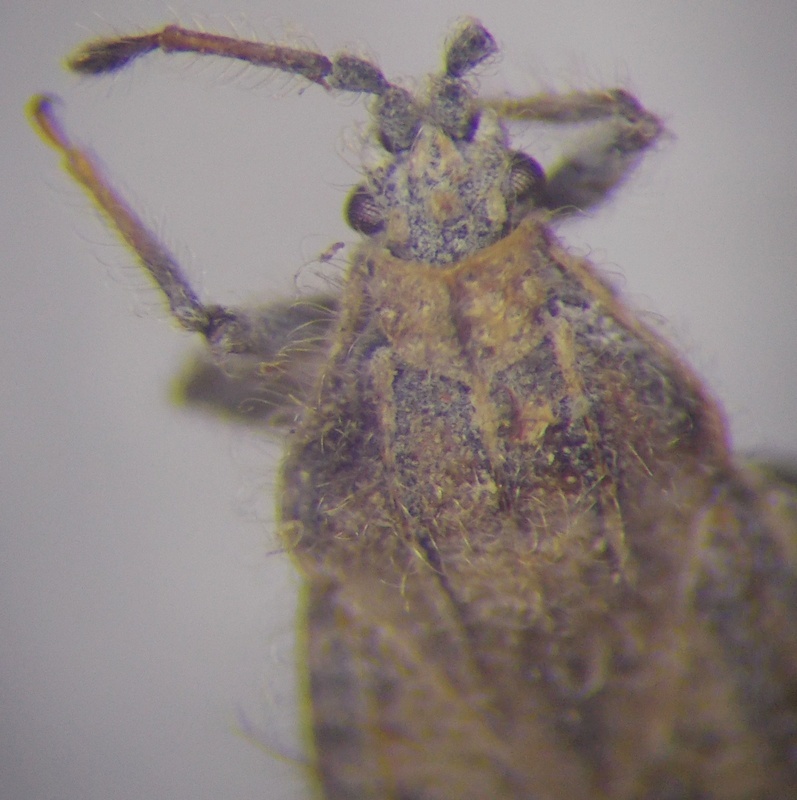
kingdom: Animalia
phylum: Arthropoda
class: Insecta
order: Hemiptera
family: Tingidae
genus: Tingis
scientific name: Tingis pauperata
